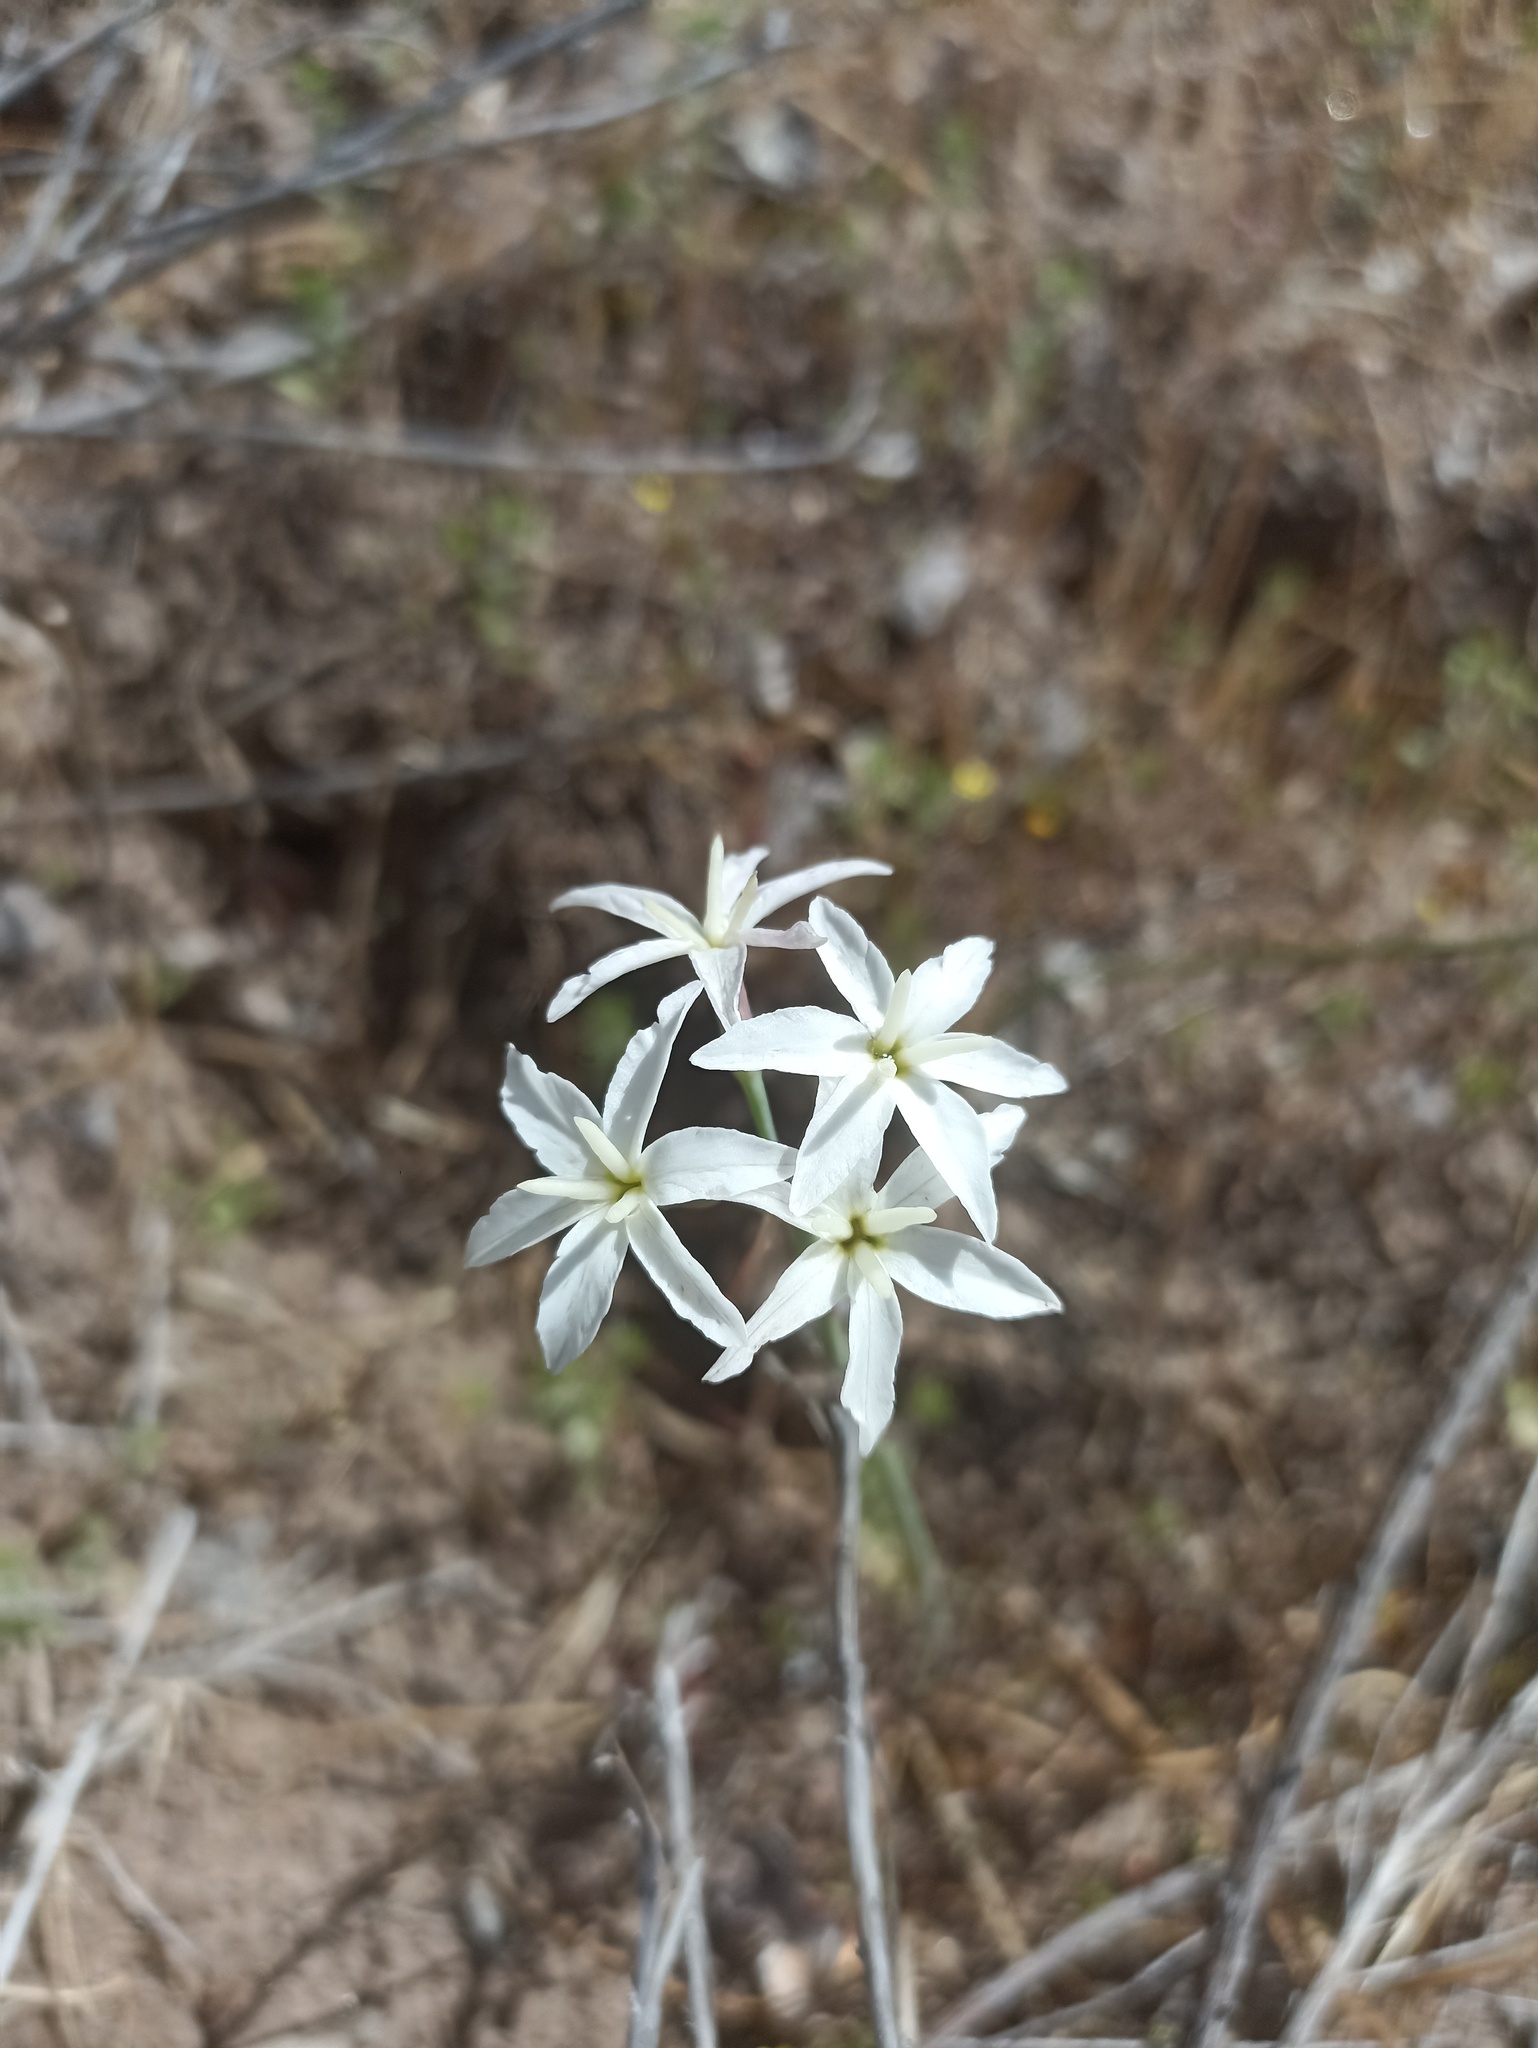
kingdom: Plantae
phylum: Tracheophyta
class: Liliopsida
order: Asparagales
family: Amaryllidaceae
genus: Leucocoryne
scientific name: Leucocoryne ixioides
